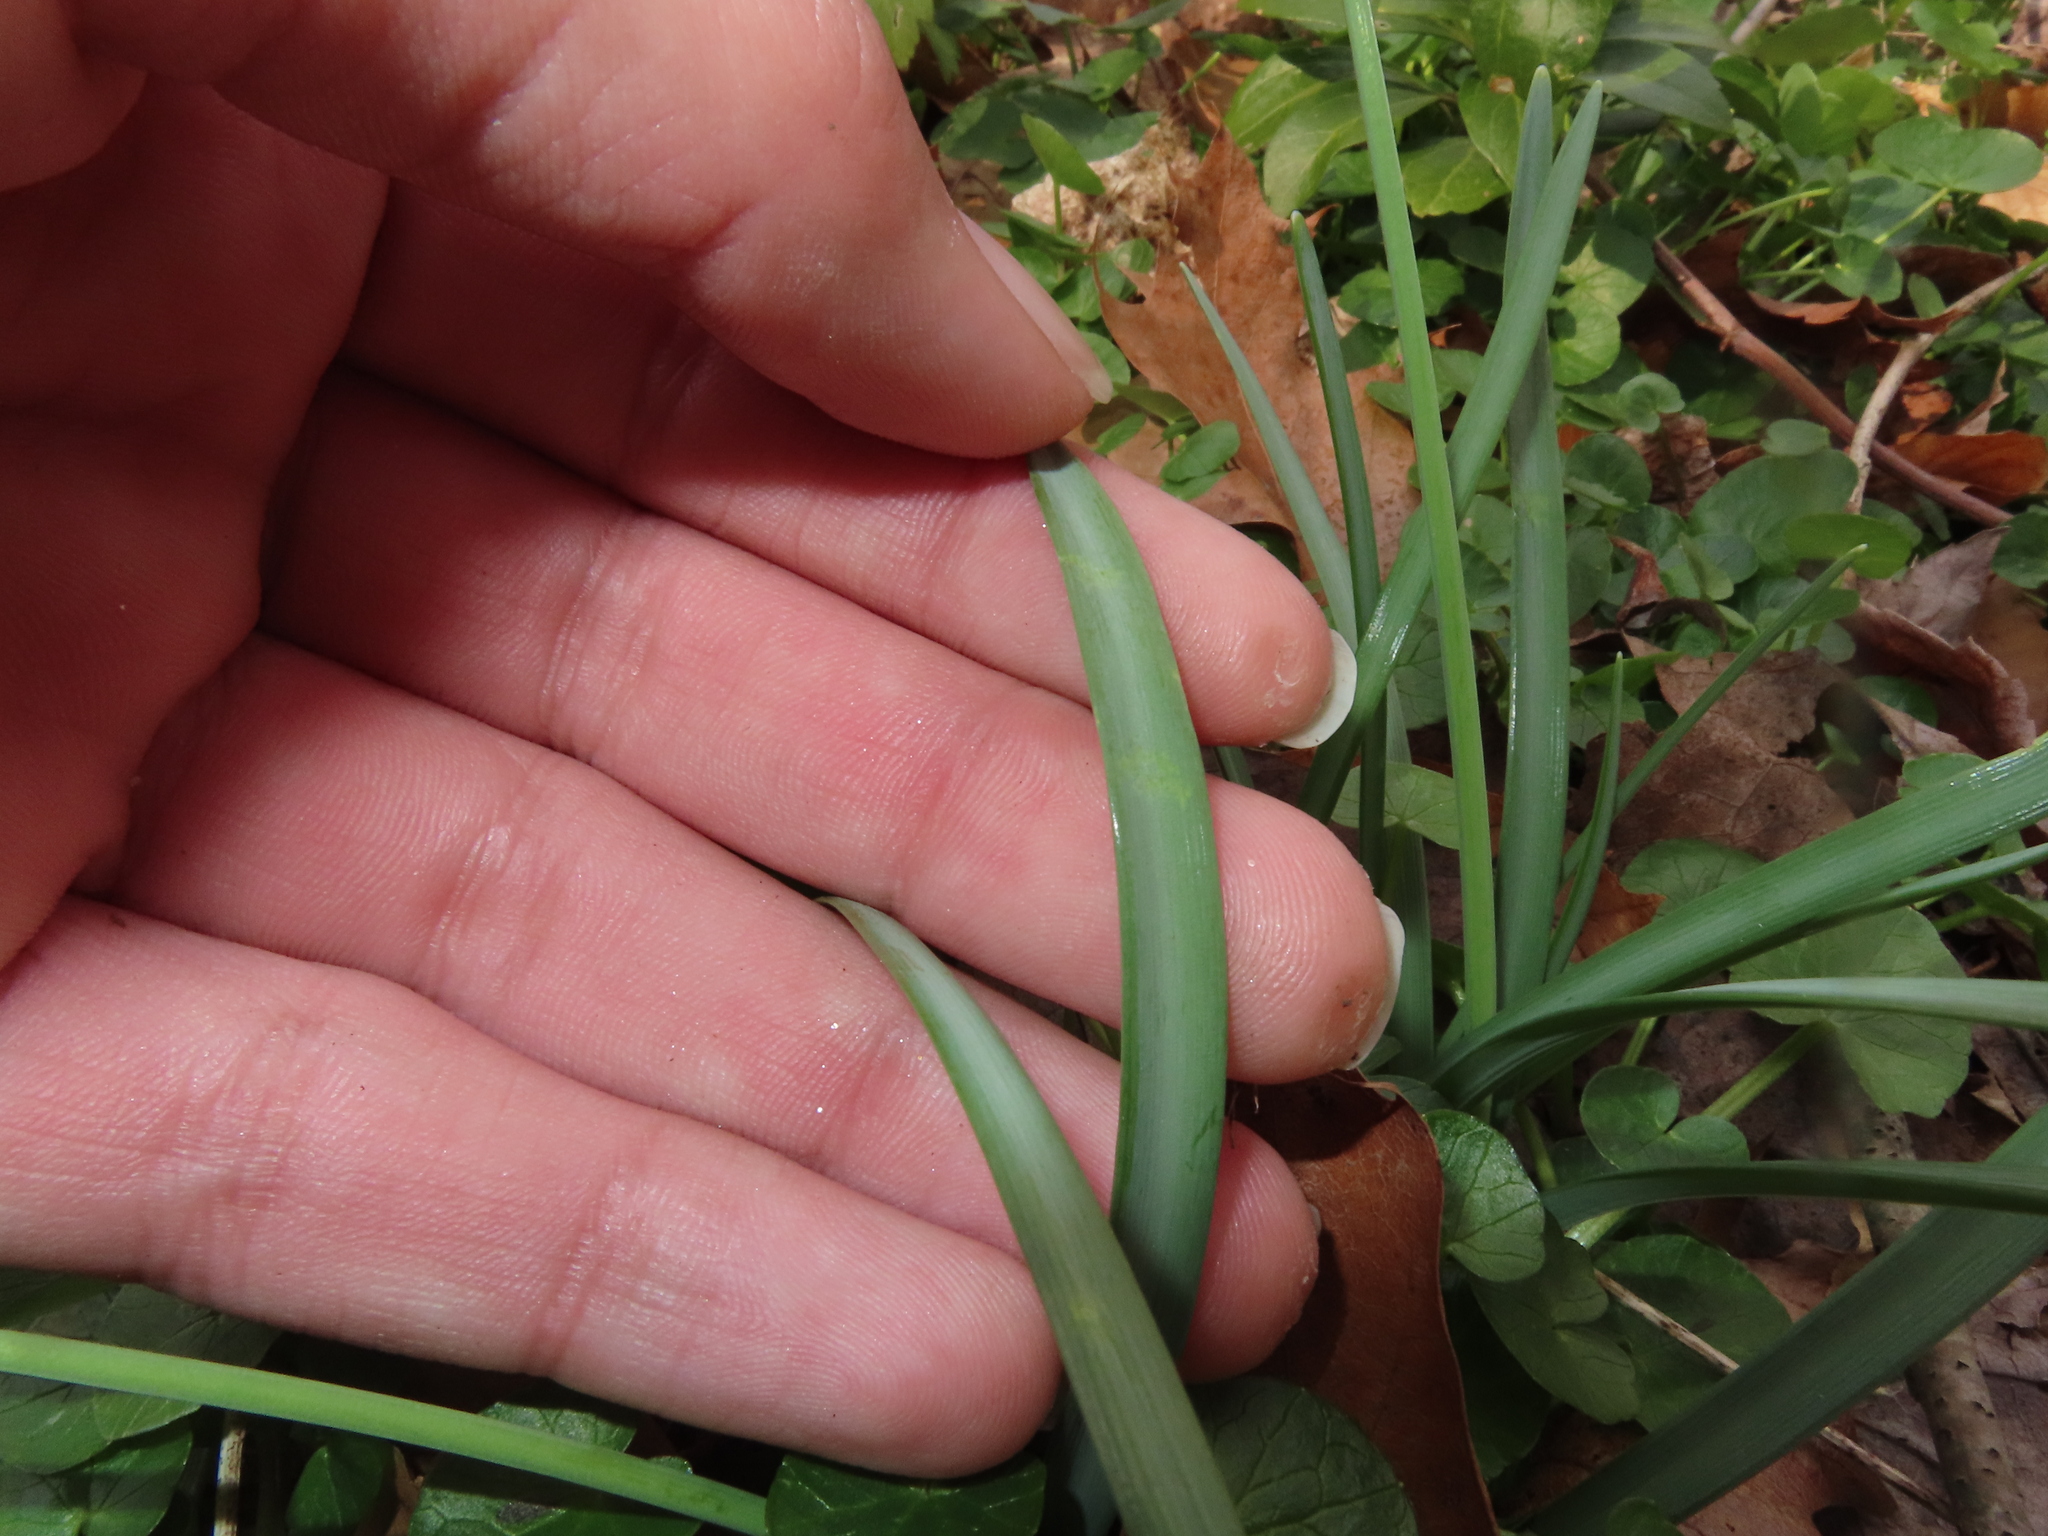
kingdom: Plantae
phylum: Tracheophyta
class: Liliopsida
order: Asparagales
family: Amaryllidaceae
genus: Galanthus
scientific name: Galanthus nivalis
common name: Snowdrop
